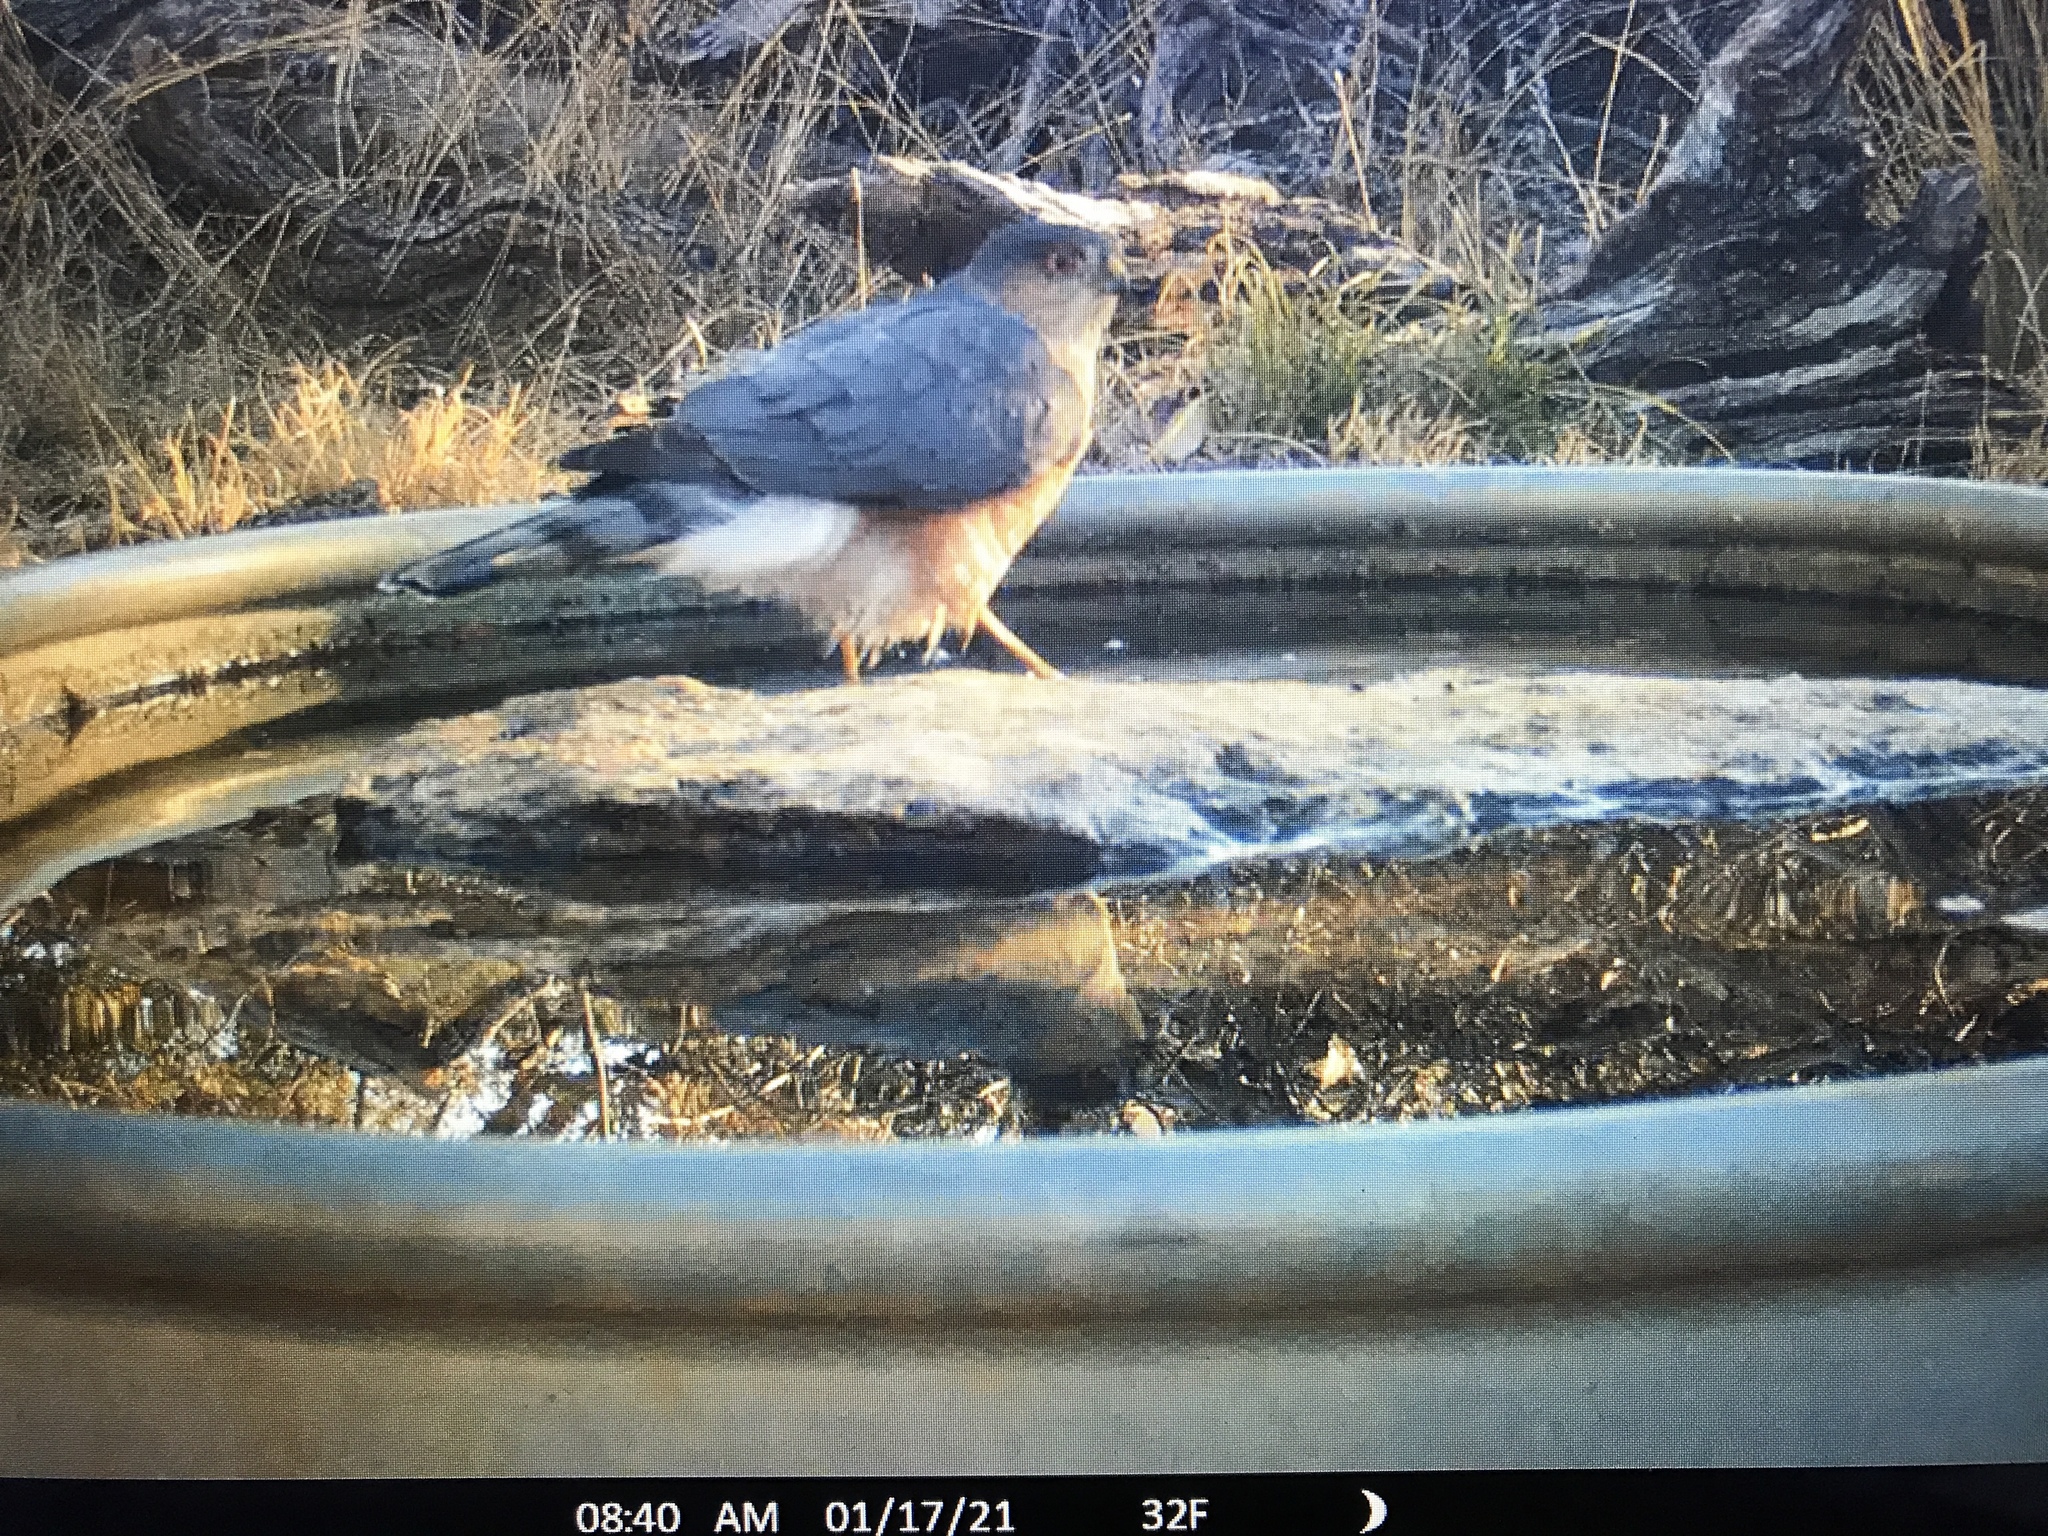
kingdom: Animalia
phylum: Chordata
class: Aves
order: Accipitriformes
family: Accipitridae
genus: Accipiter
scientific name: Accipiter striatus
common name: Sharp-shinned hawk
